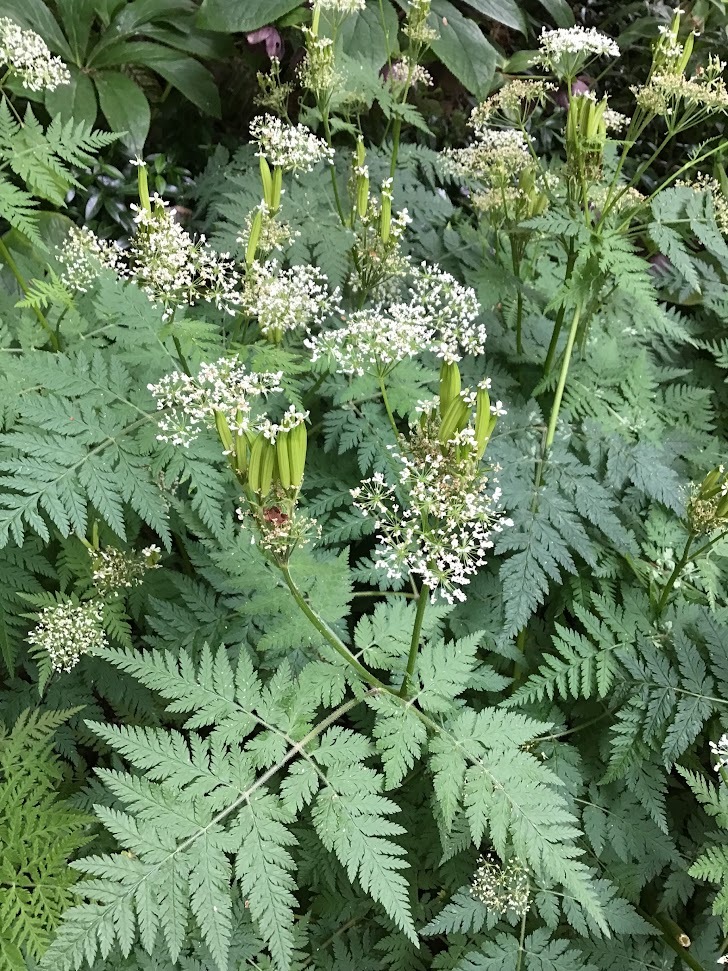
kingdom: Plantae
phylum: Tracheophyta
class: Magnoliopsida
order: Apiales
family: Apiaceae
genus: Myrrhis
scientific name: Myrrhis odorata
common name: Sweet cicely
